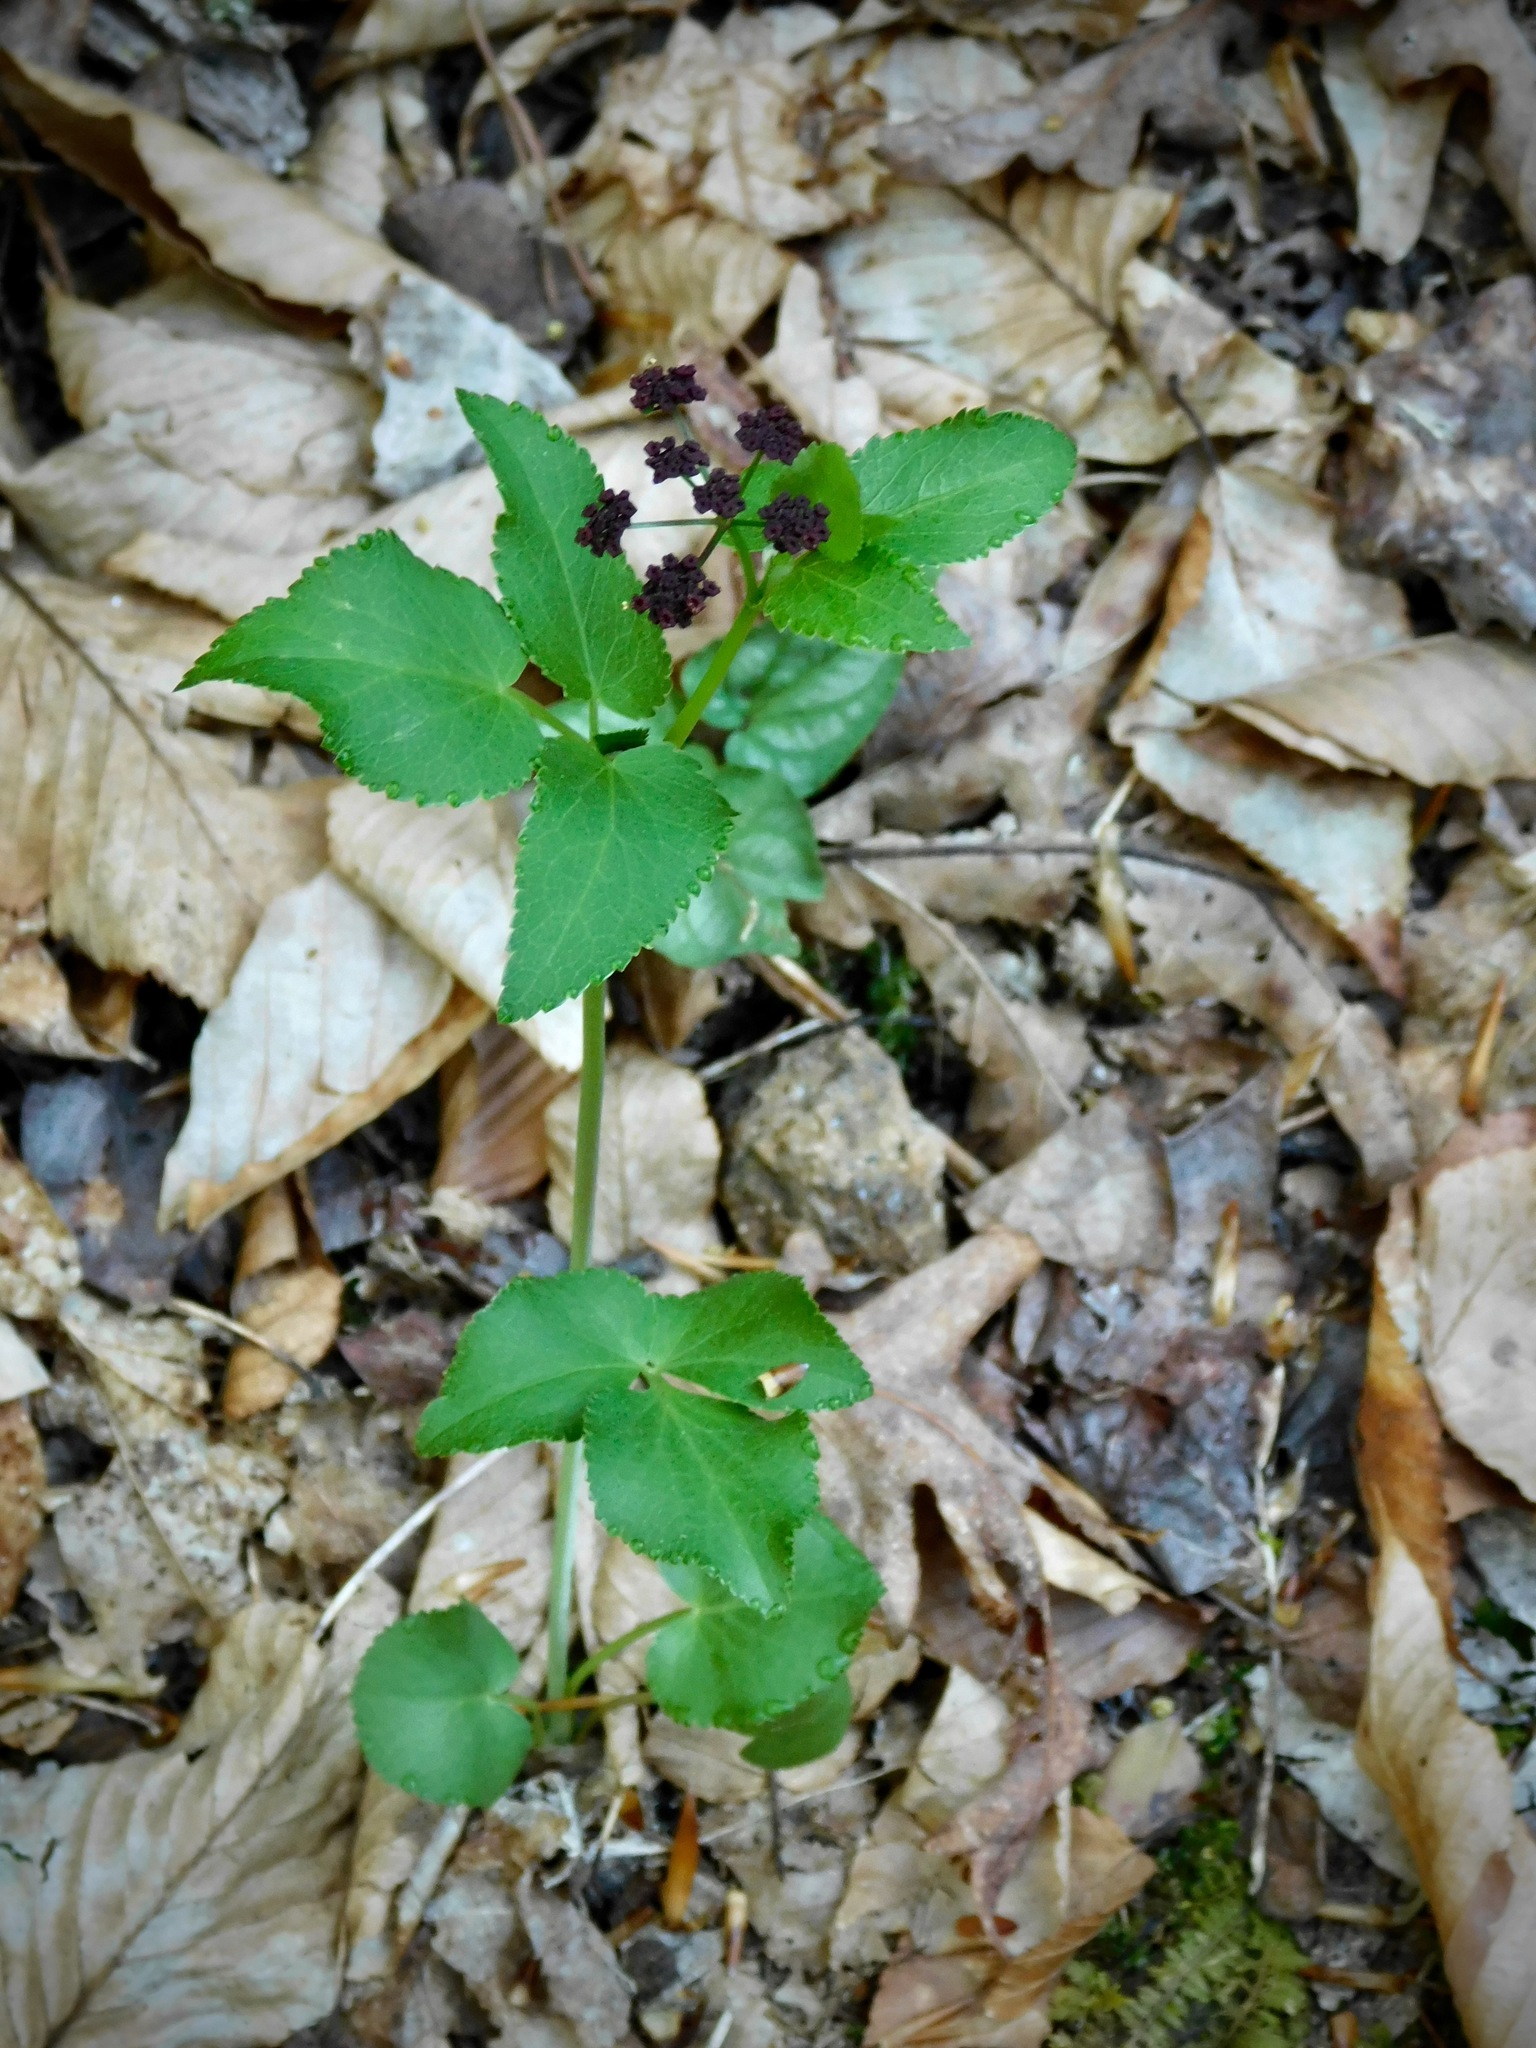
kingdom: Plantae
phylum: Tracheophyta
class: Magnoliopsida
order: Apiales
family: Apiaceae
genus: Thaspium
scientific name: Thaspium trifoliatum
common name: Purple meadow-parsnip
